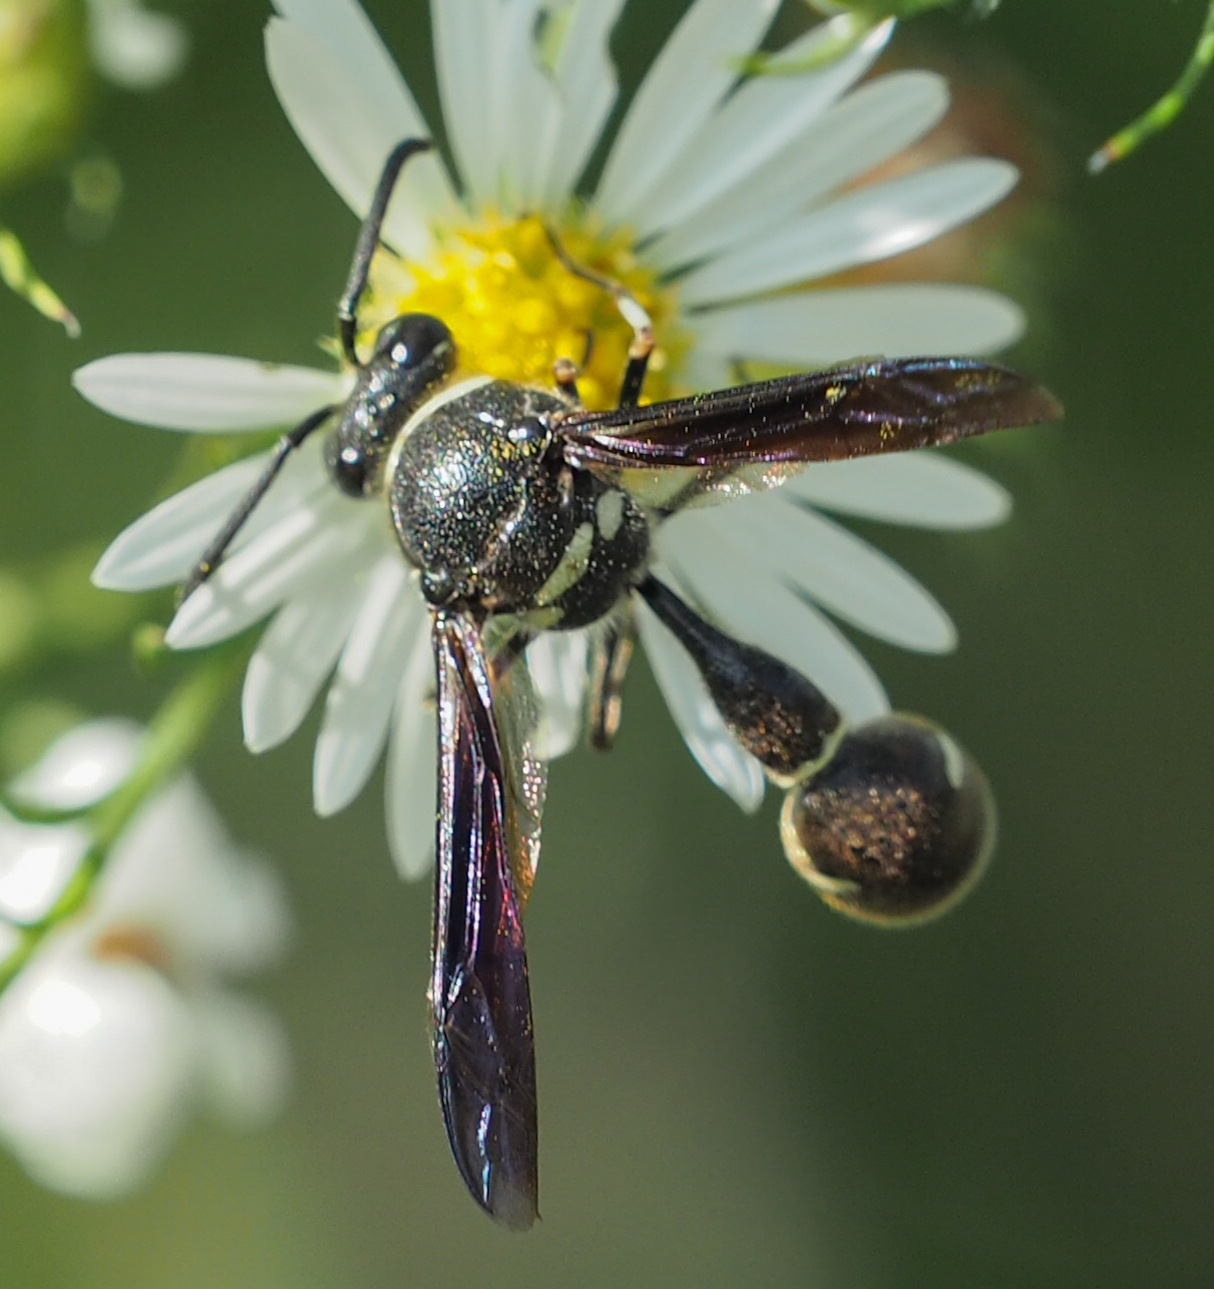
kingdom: Animalia
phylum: Arthropoda
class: Insecta
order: Hymenoptera
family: Vespidae
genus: Eumenes
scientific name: Eumenes fraternus
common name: Fraternal potter wasp
